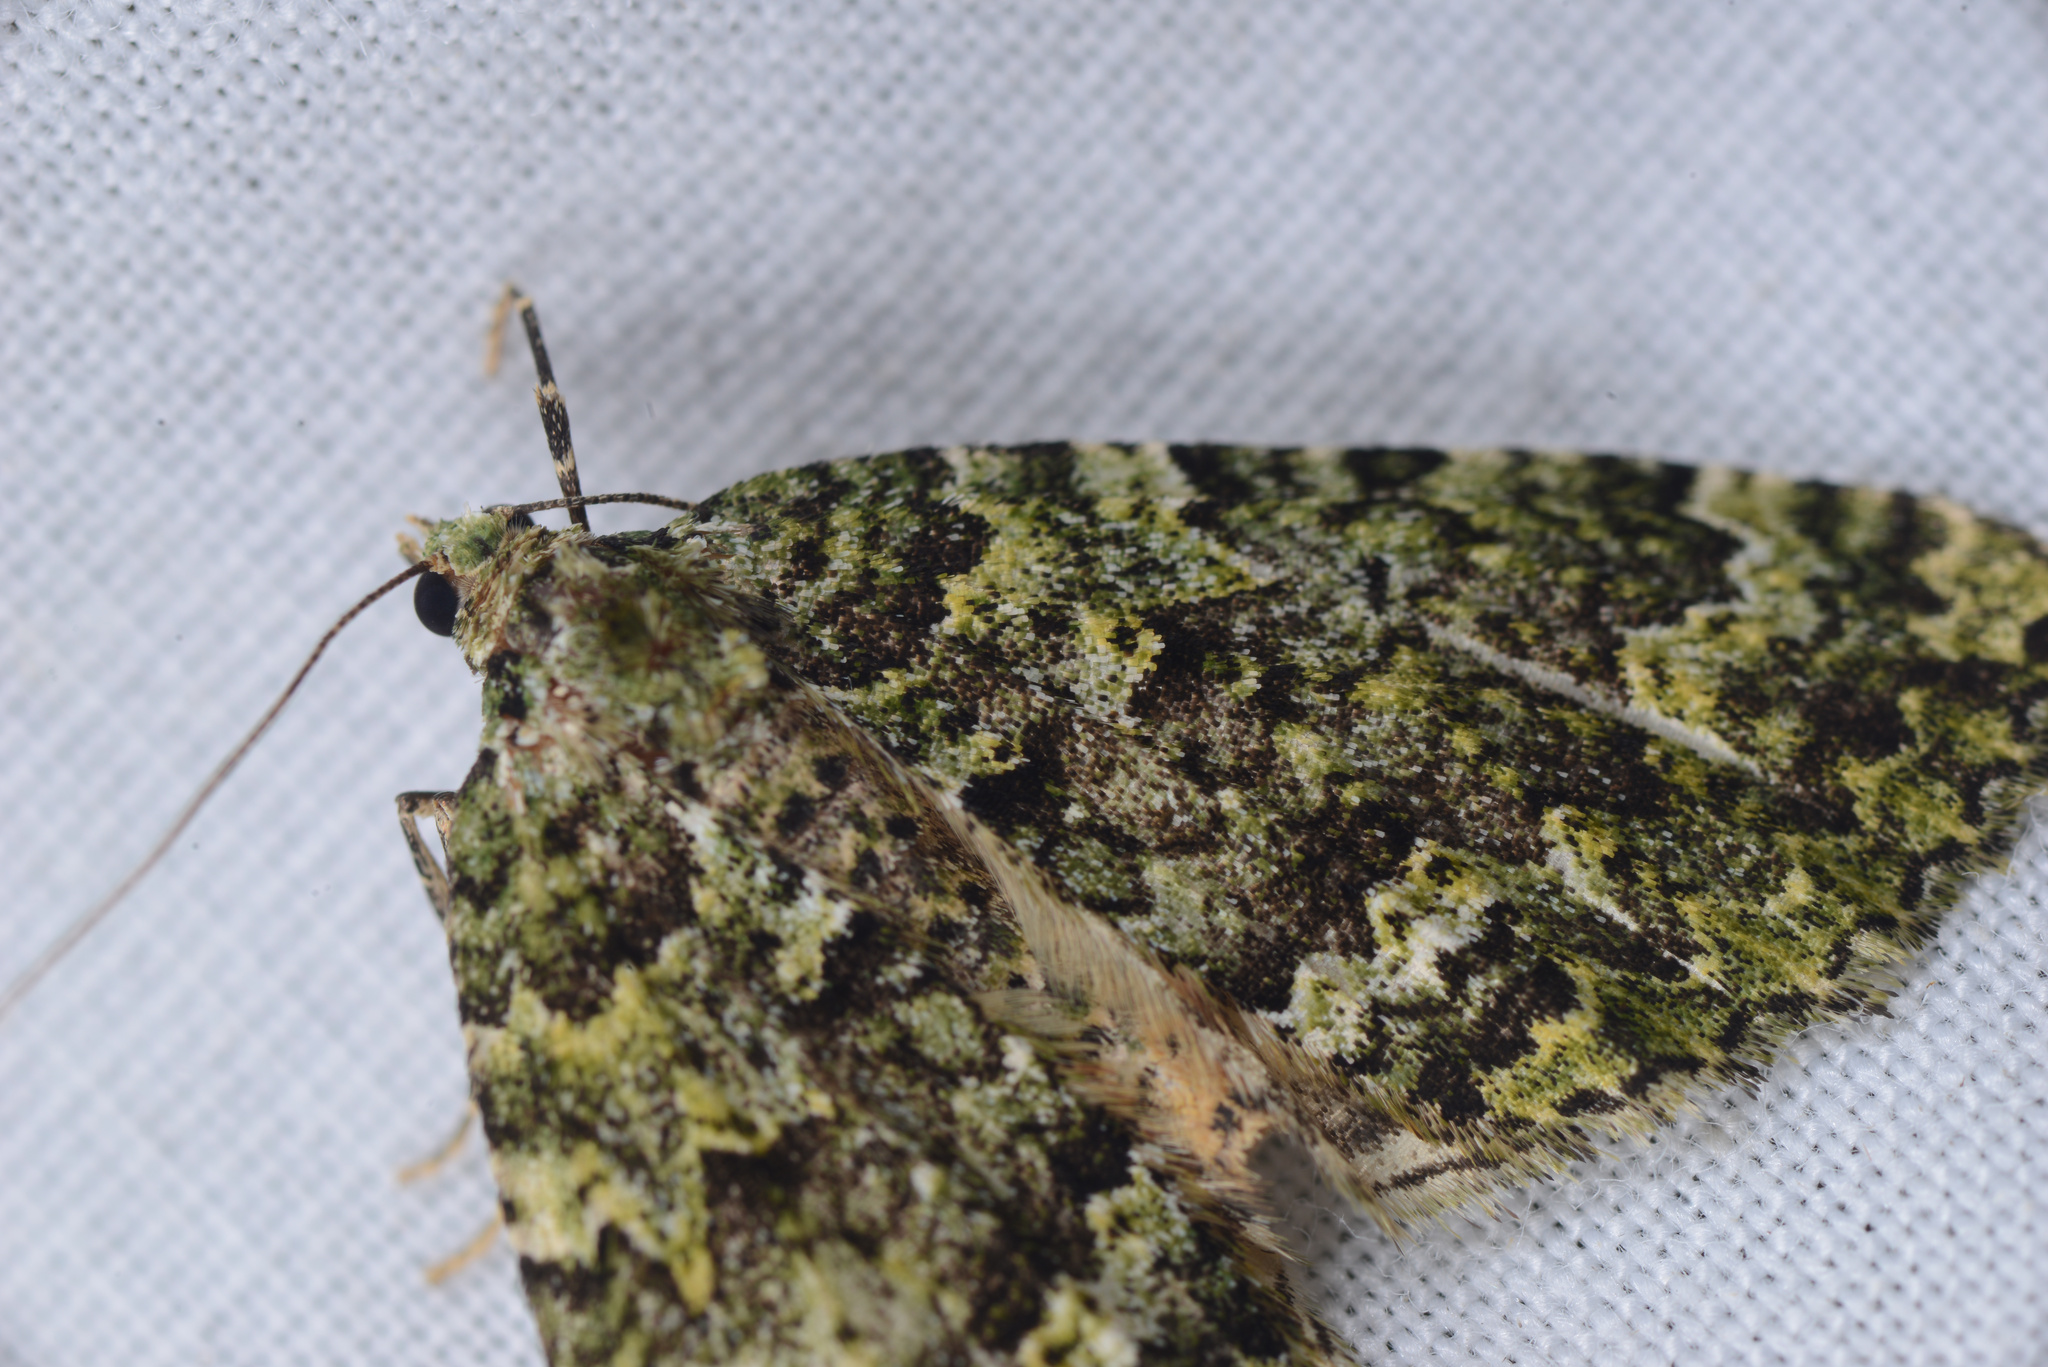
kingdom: Animalia
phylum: Arthropoda
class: Insecta
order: Lepidoptera
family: Geometridae
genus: Austrocidaria
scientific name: Austrocidaria callichlora
